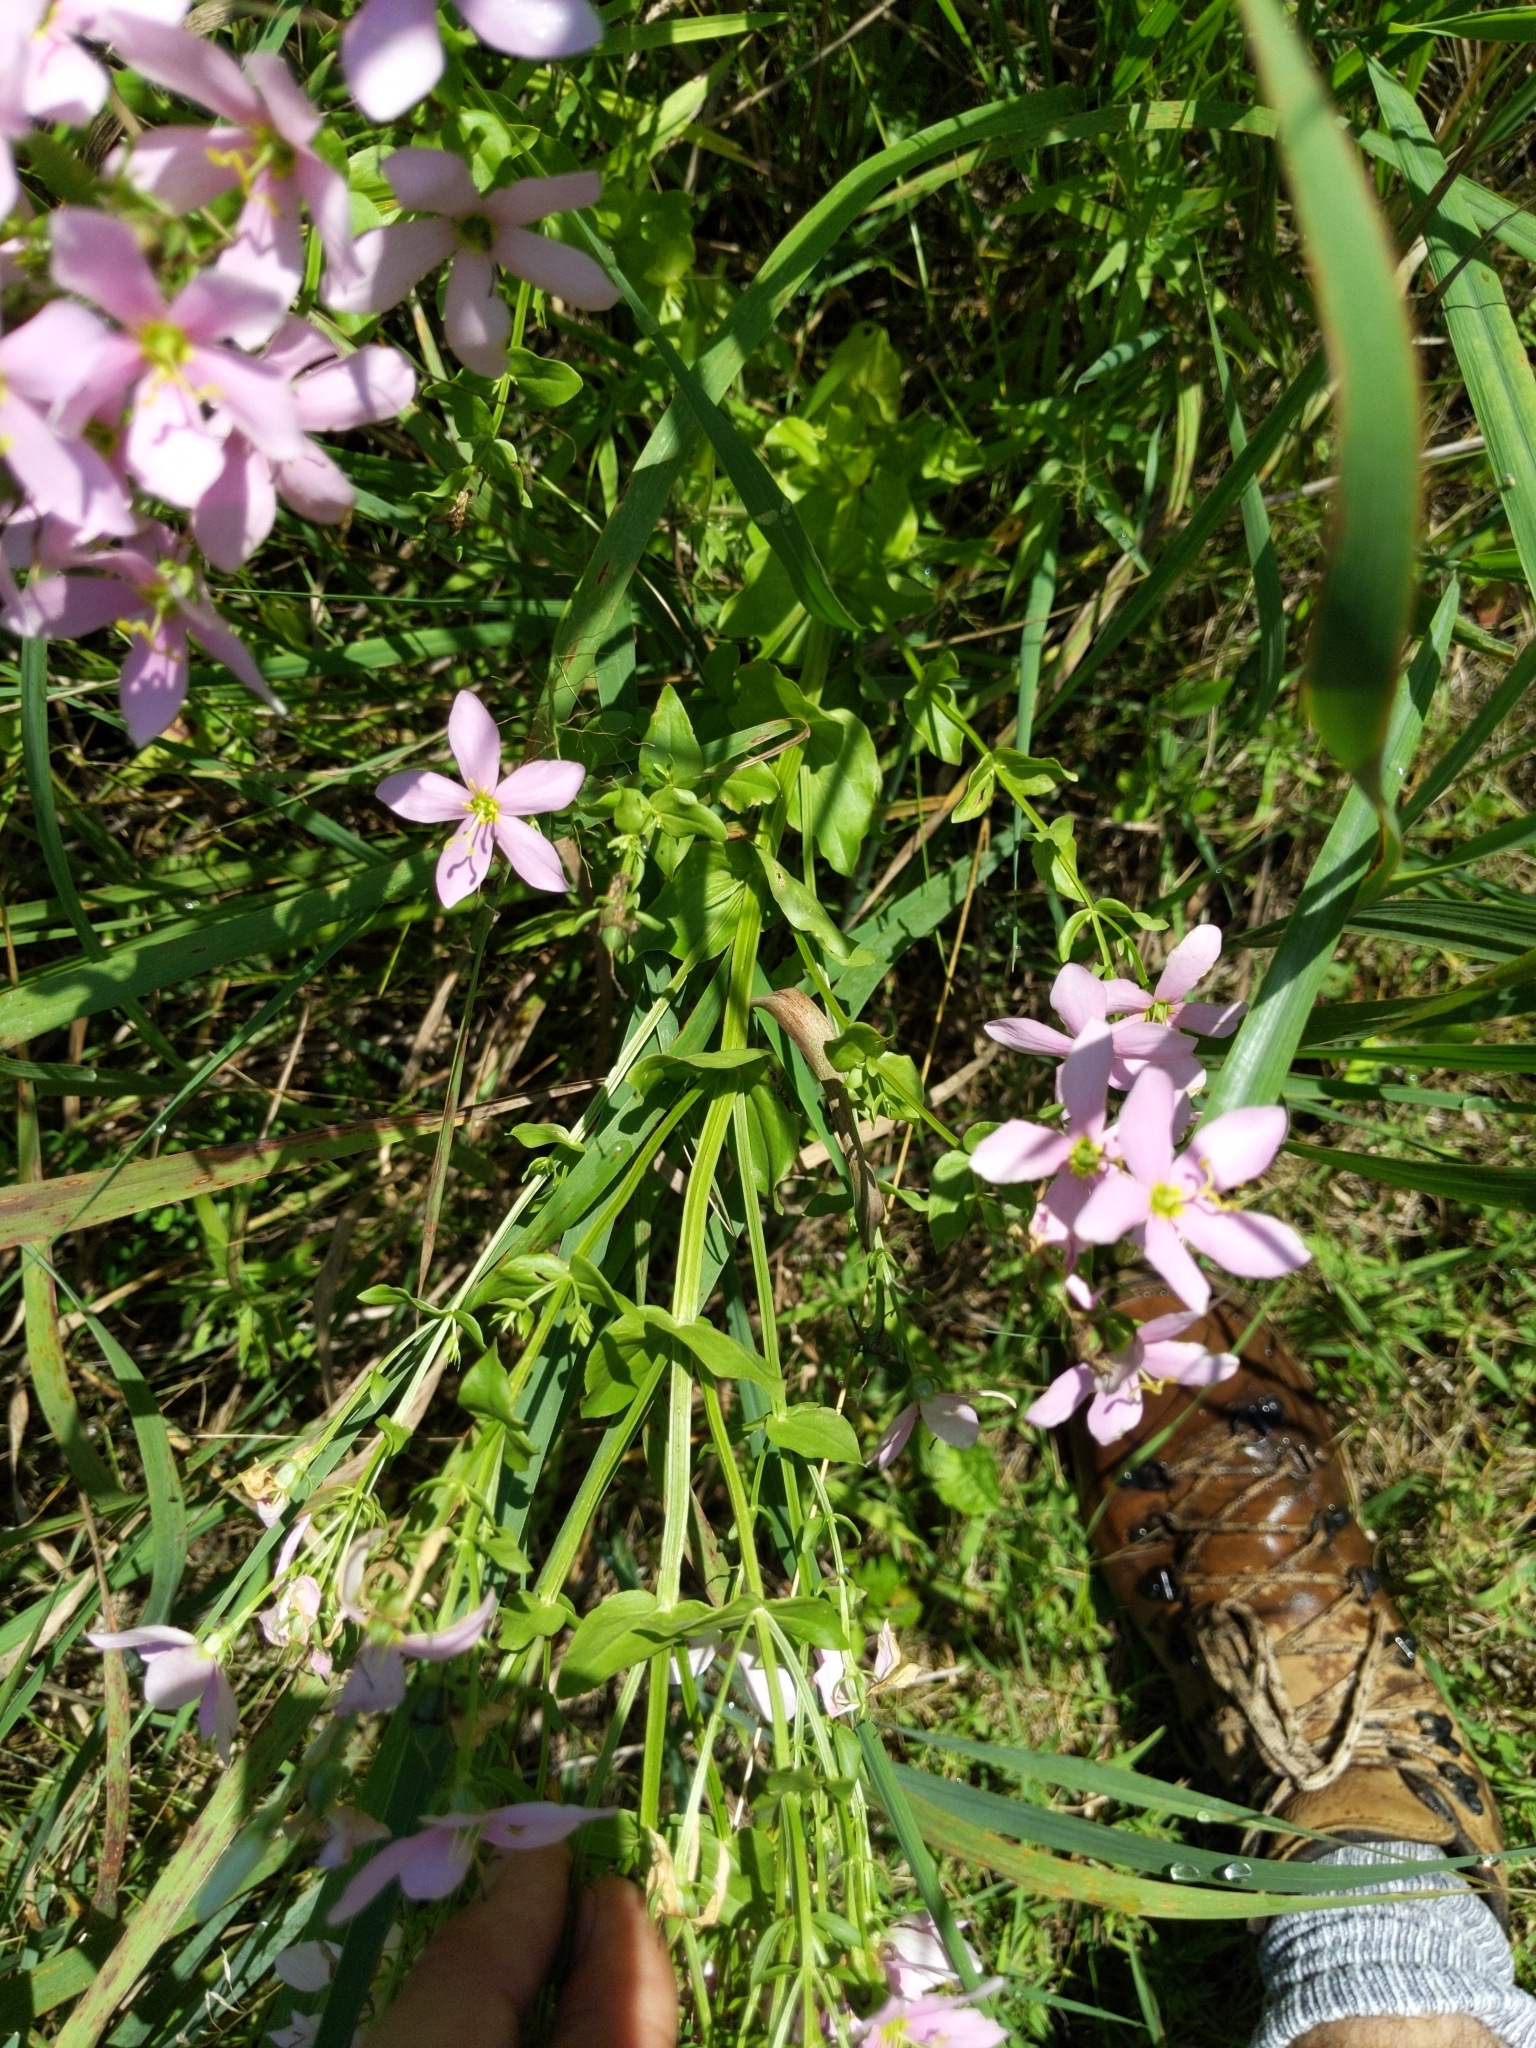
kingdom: Plantae
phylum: Tracheophyta
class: Magnoliopsida
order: Gentianales
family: Gentianaceae
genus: Sabatia
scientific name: Sabatia angularis
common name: Rose-pink
